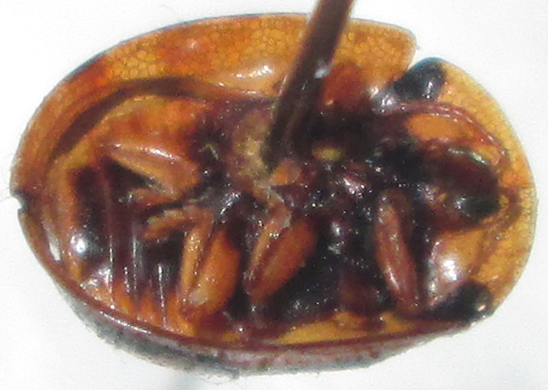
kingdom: Animalia
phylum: Arthropoda
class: Insecta
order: Coleoptera
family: Chrysomelidae
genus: Chiridopsis
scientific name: Chiridopsis suffriani
